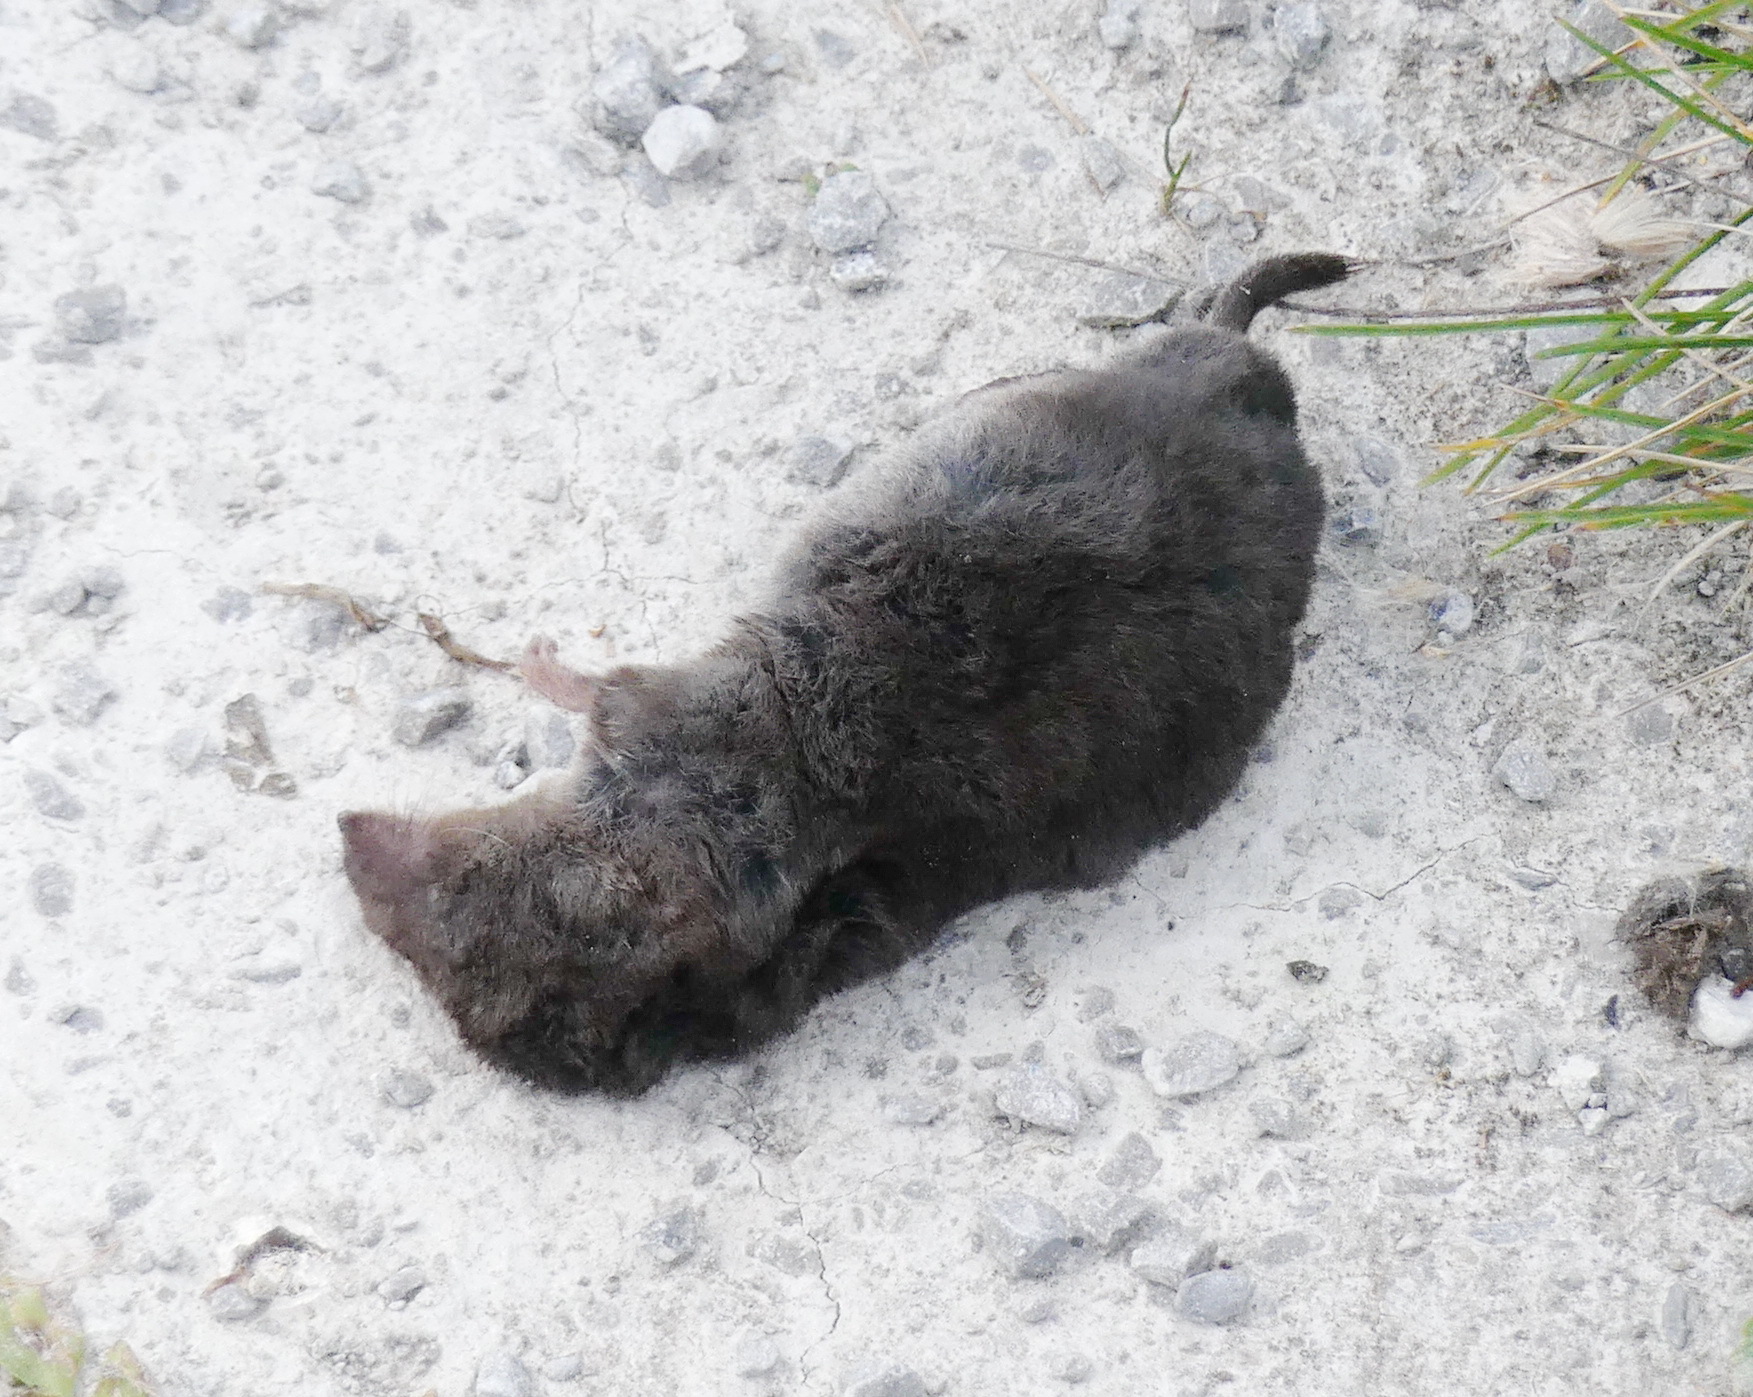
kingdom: Animalia
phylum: Chordata
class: Mammalia
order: Soricomorpha
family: Soricidae
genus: Blarina
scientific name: Blarina brevicauda
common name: Northern short-tailed shrew
